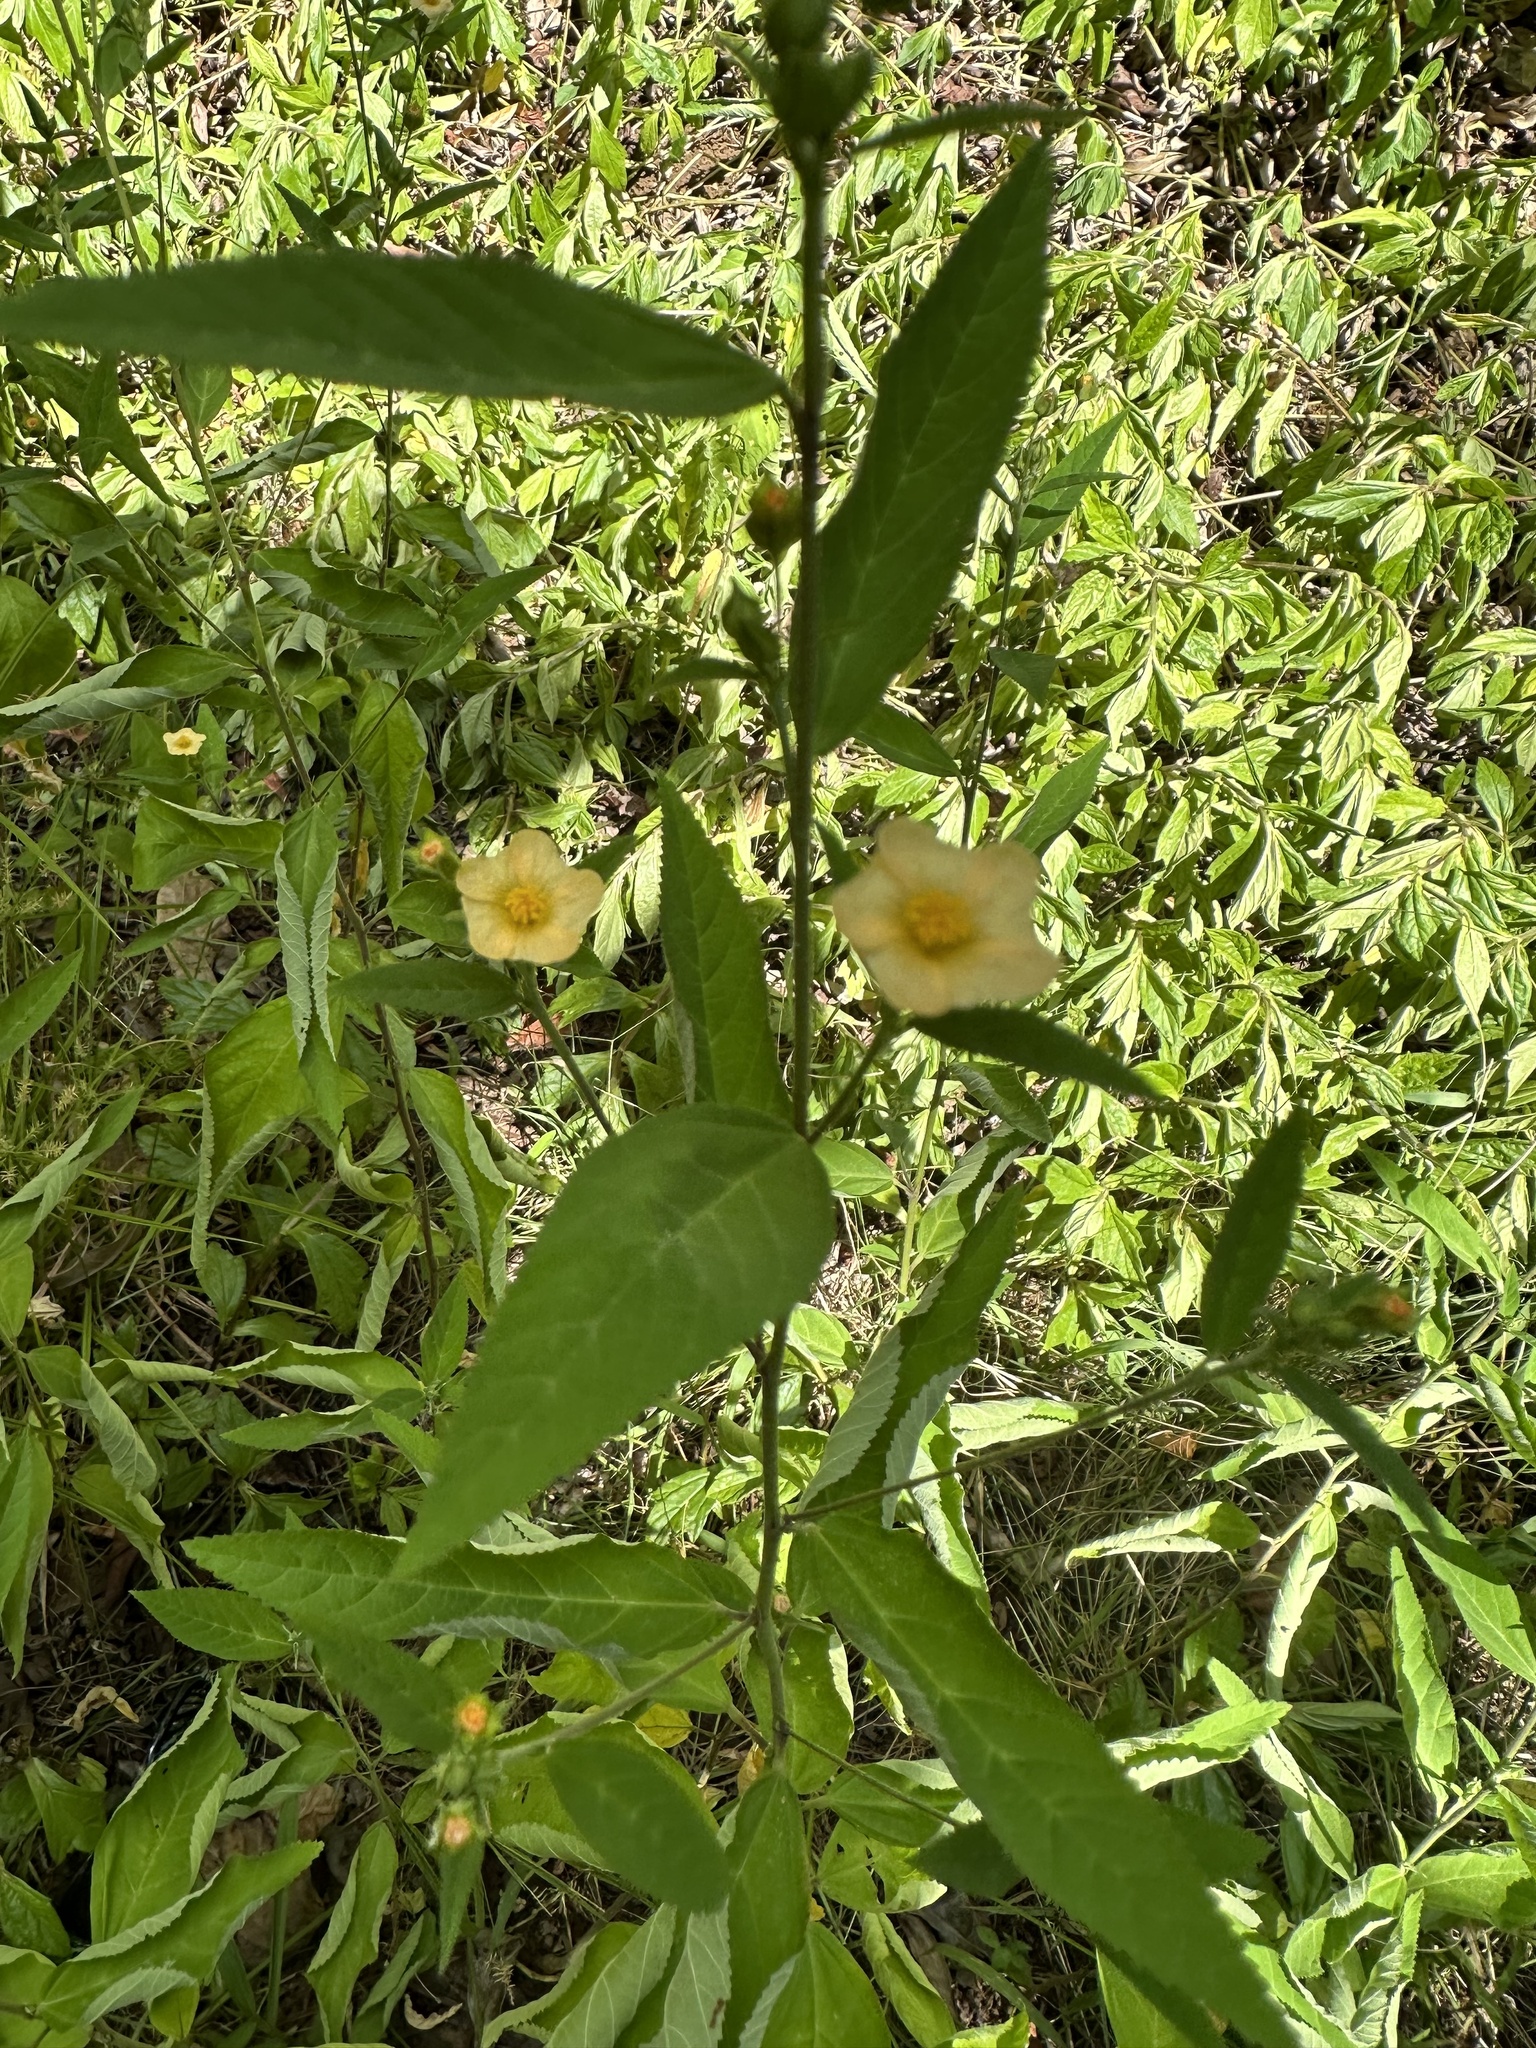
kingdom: Plantae
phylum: Tracheophyta
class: Magnoliopsida
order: Malvales
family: Malvaceae
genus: Sida
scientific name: Sida rhombifolia
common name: Queensland-hemp
